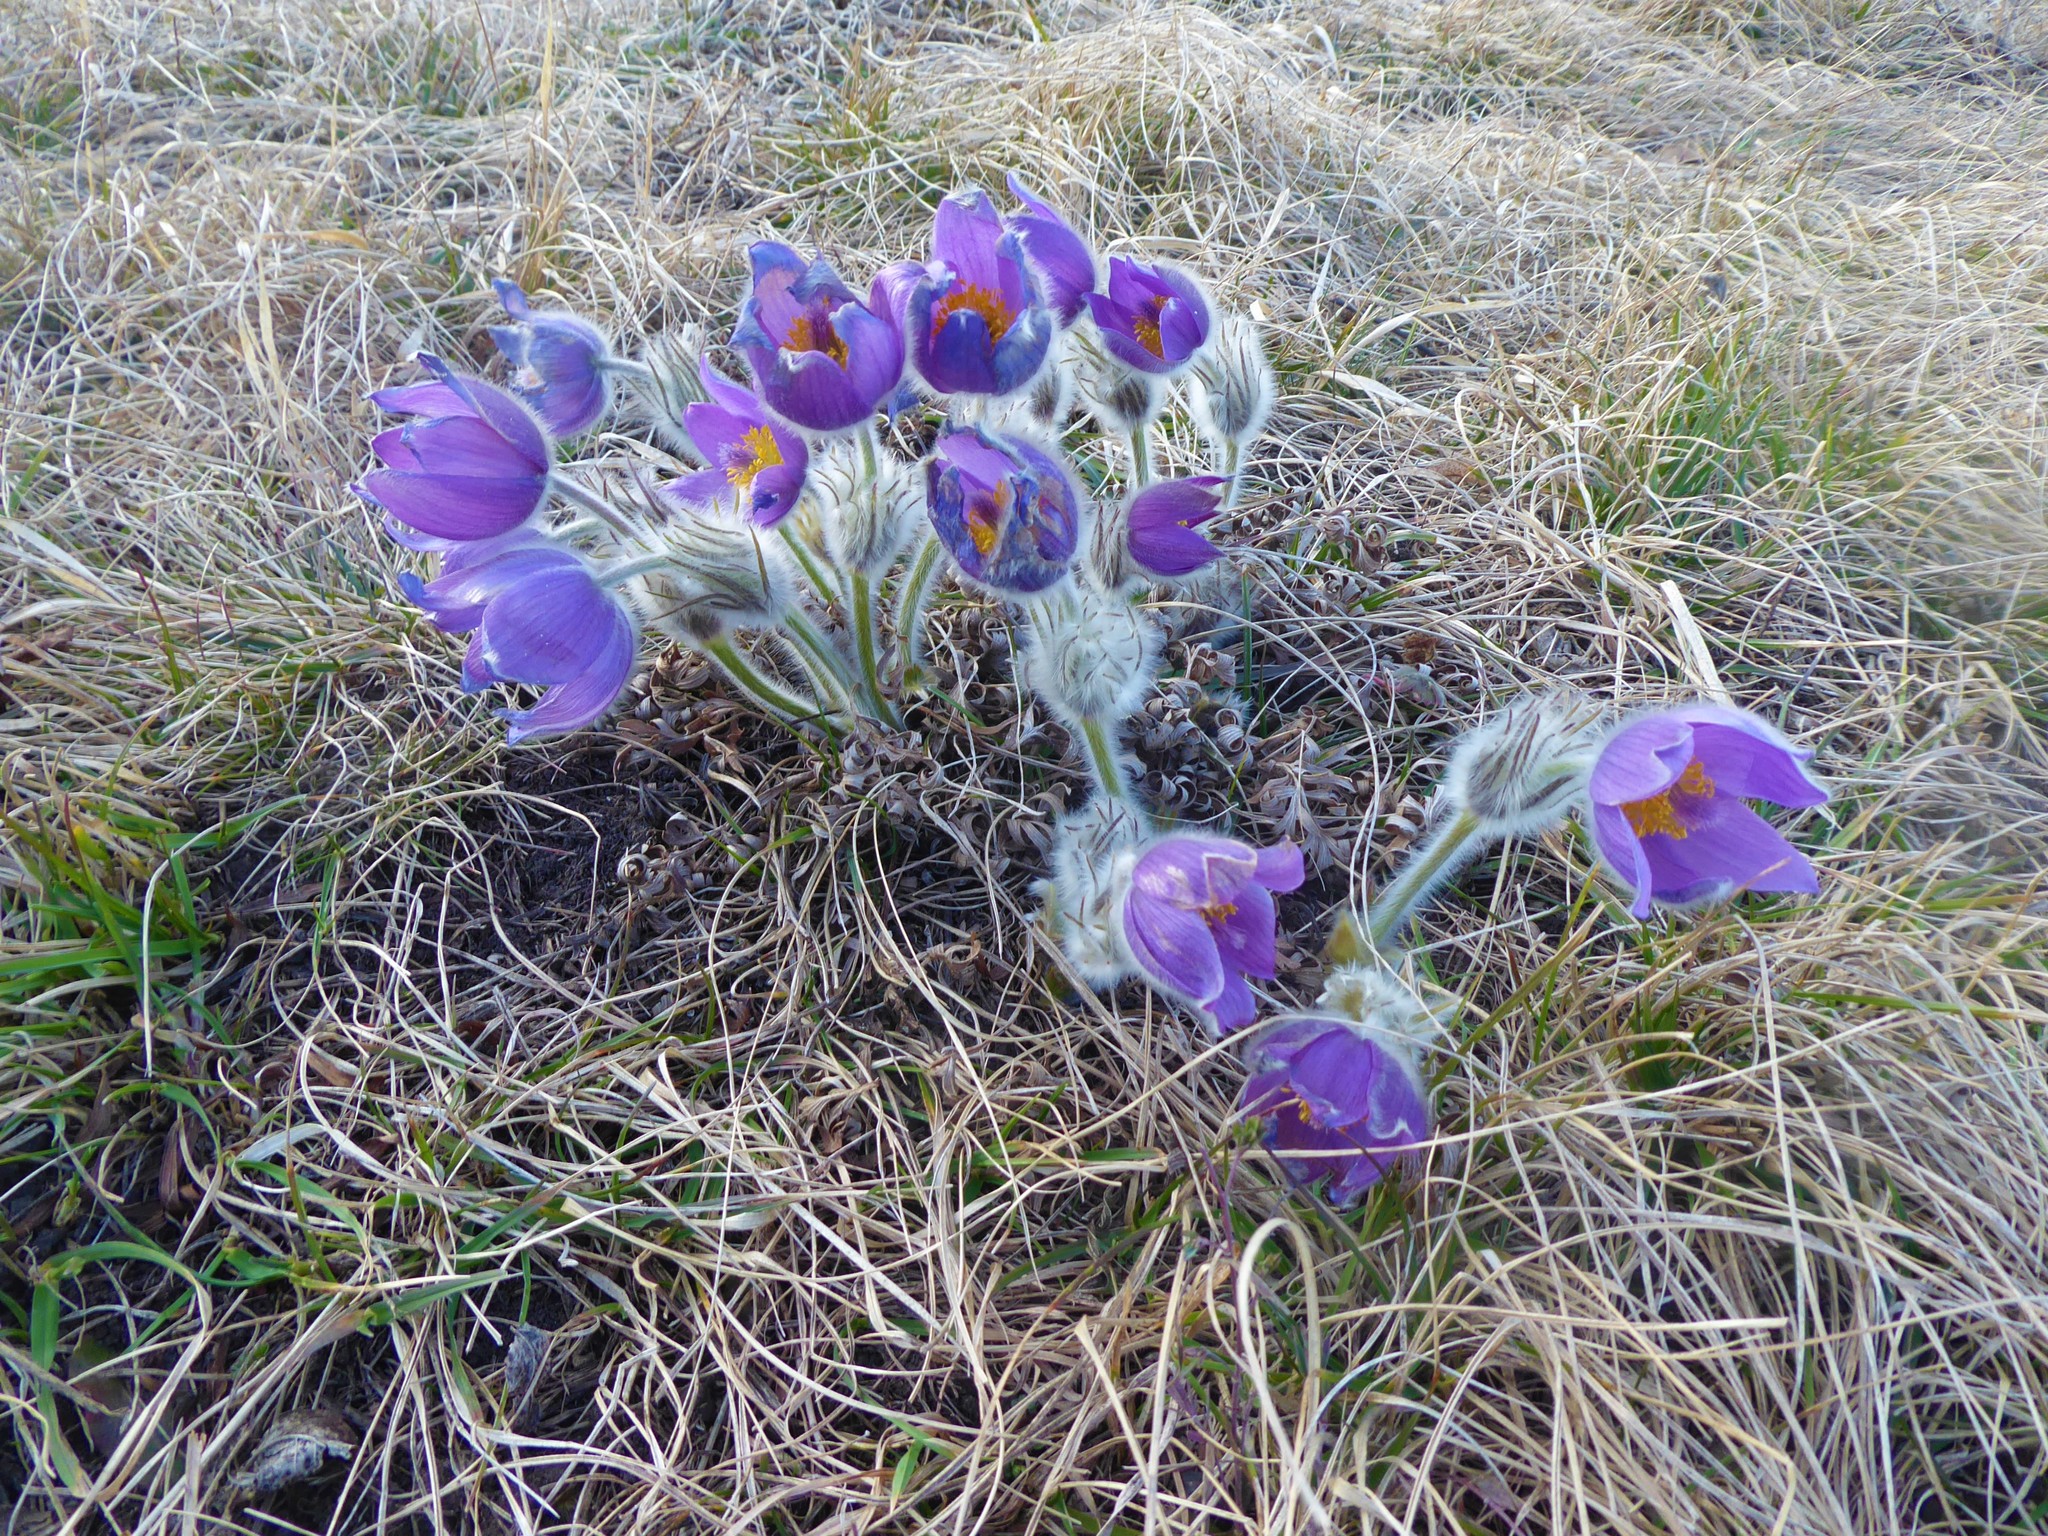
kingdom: Plantae
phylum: Tracheophyta
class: Magnoliopsida
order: Ranunculales
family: Ranunculaceae
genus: Pulsatilla
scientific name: Pulsatilla grandis
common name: Greater pasque flower
